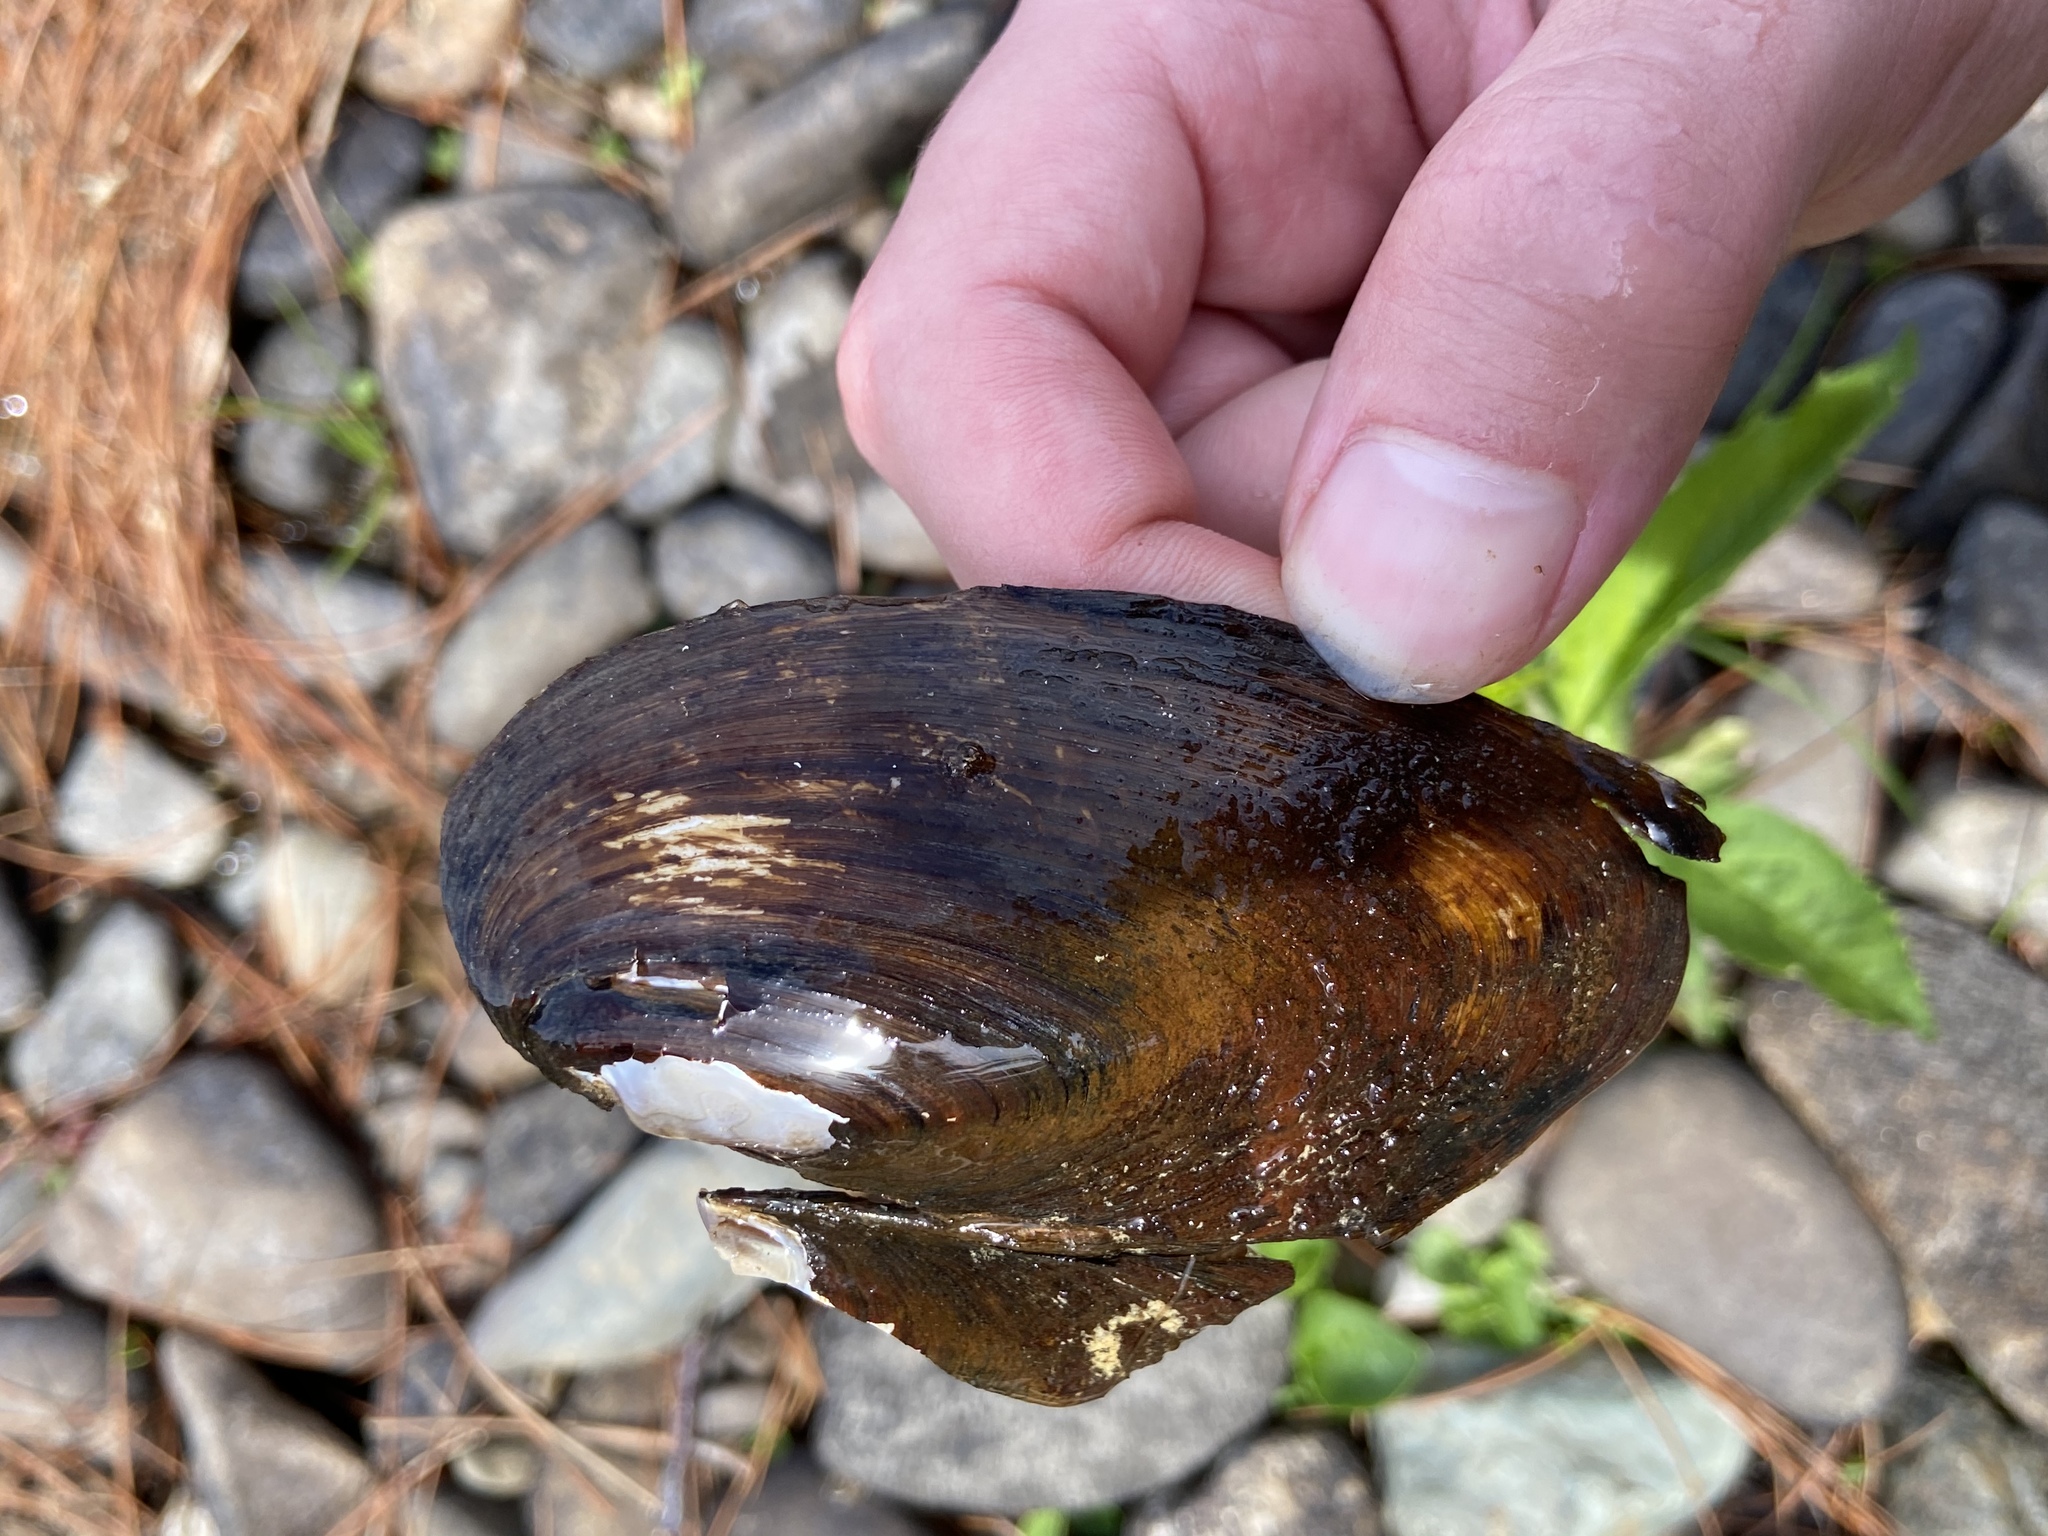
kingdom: Animalia
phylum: Mollusca
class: Bivalvia
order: Unionida
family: Unionidae
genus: Elliptio
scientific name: Elliptio complanata
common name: Eastern elliptio
